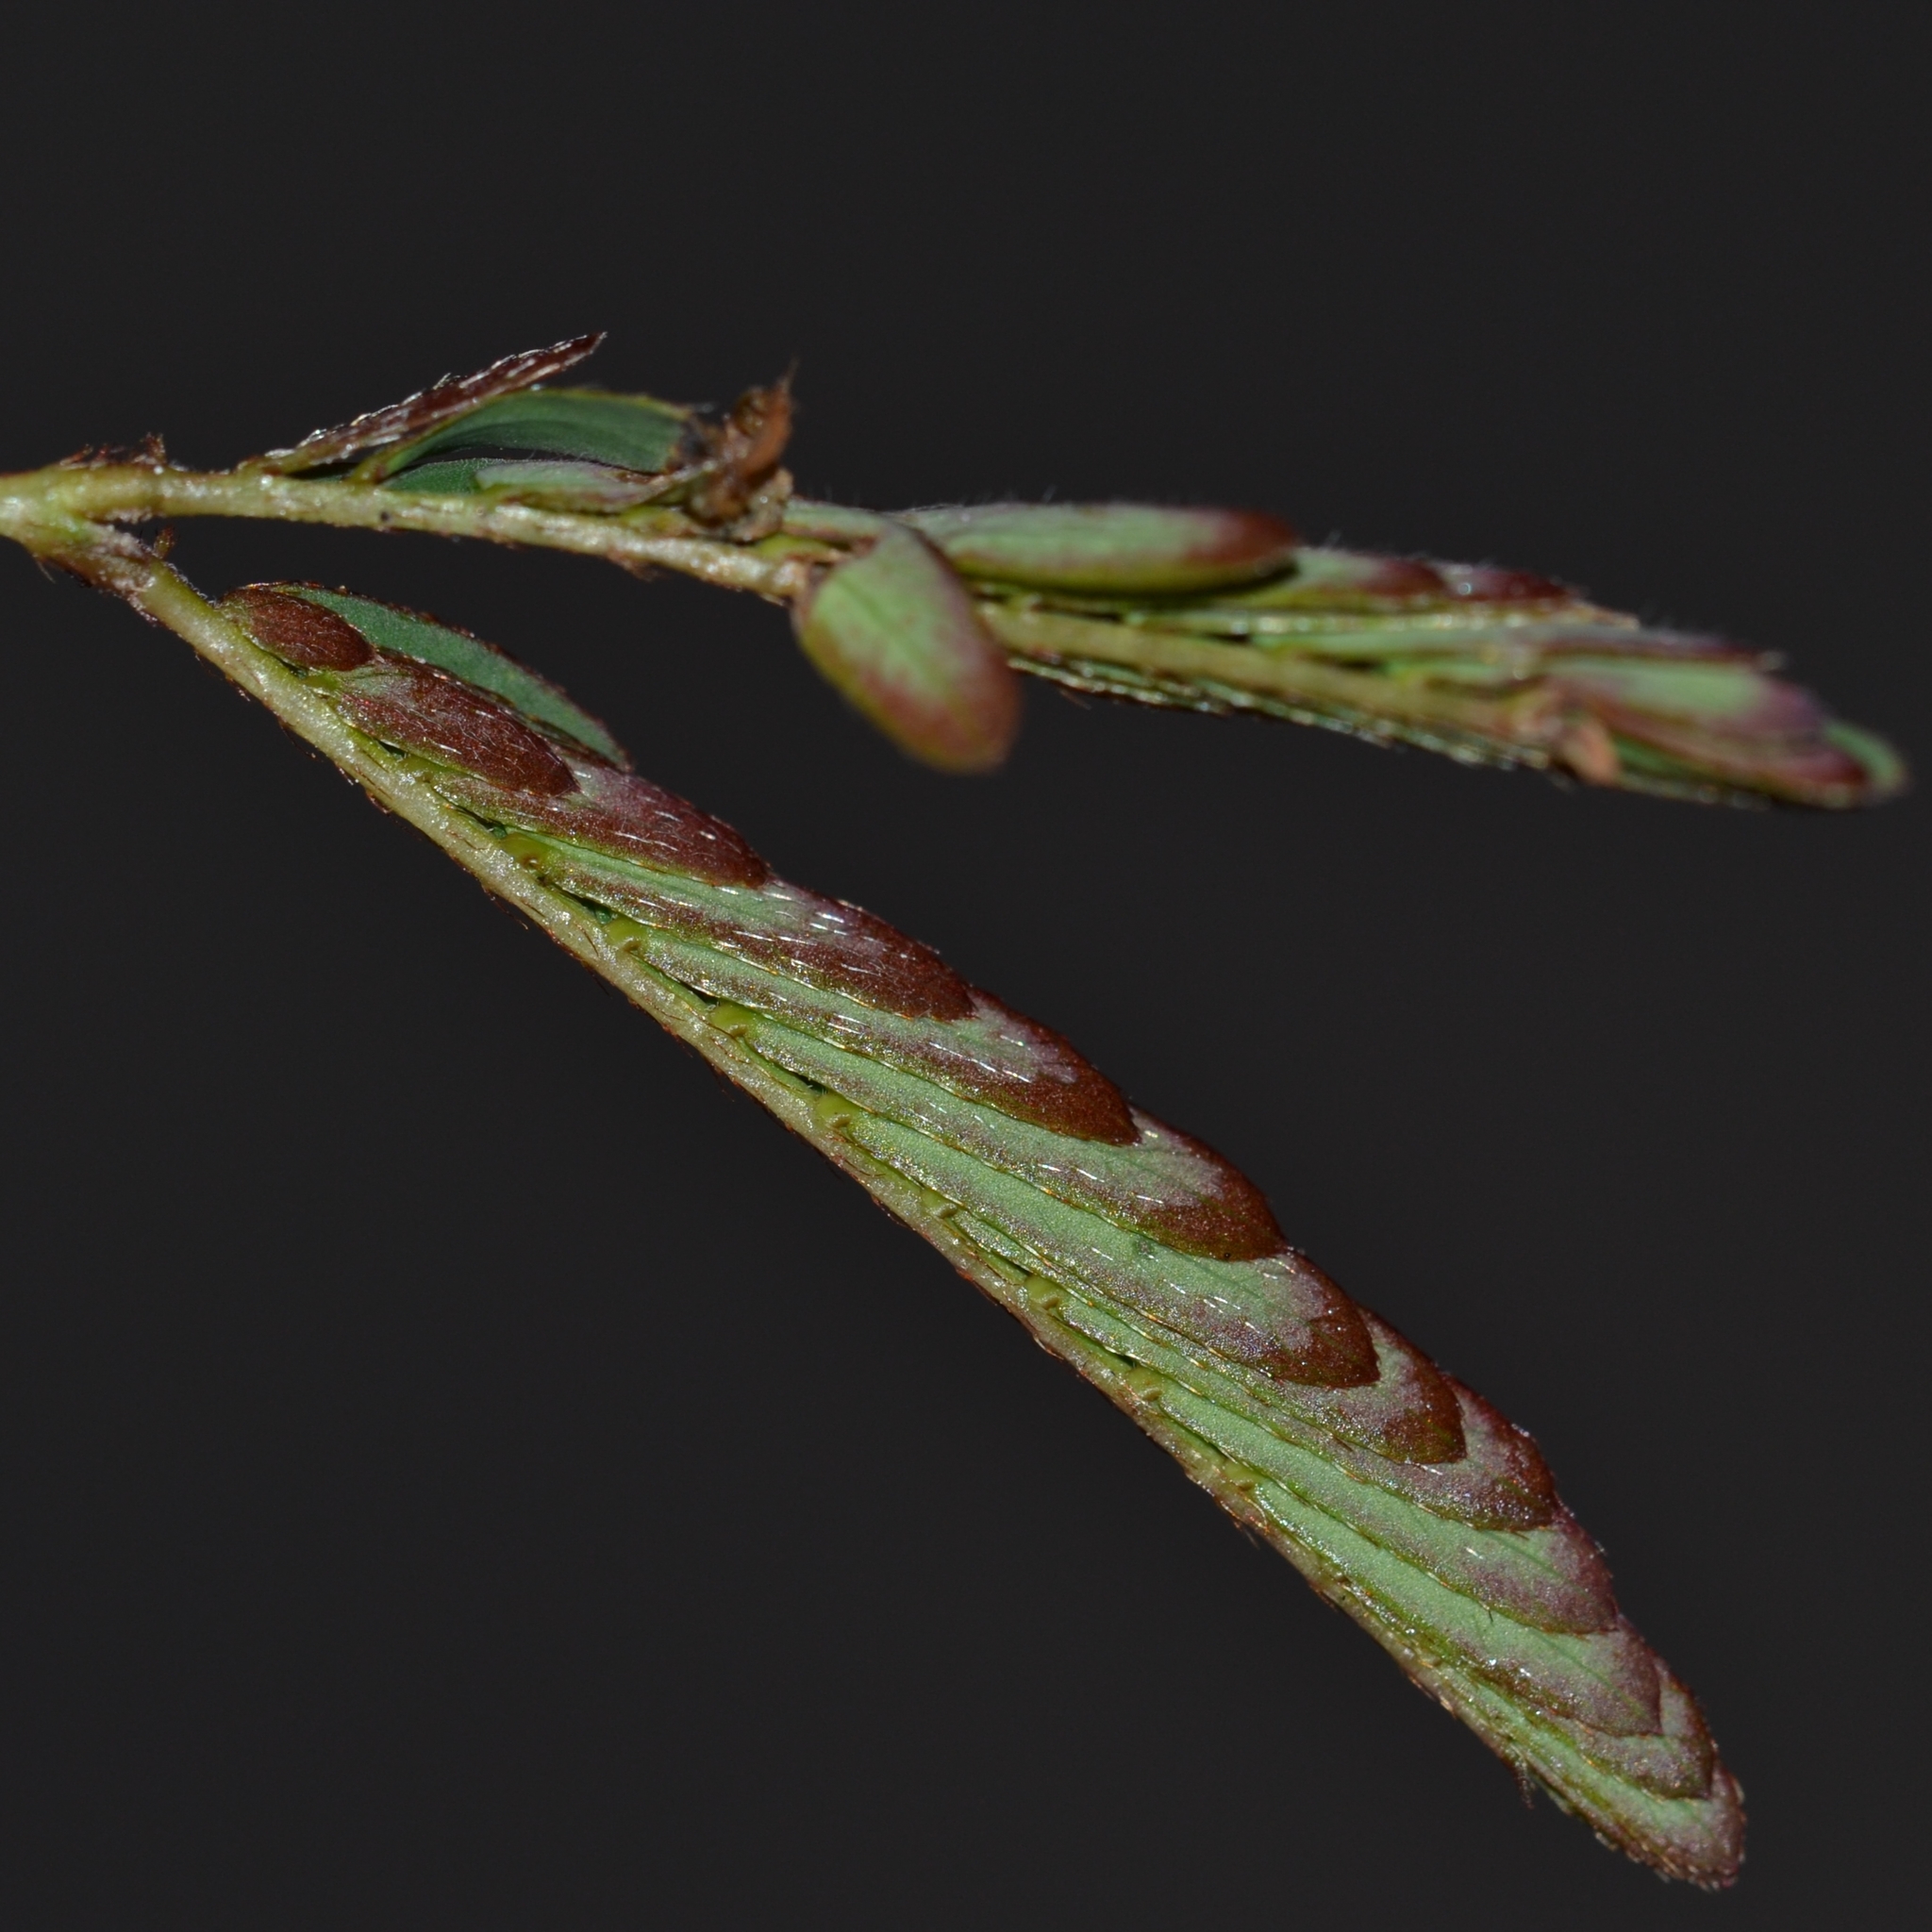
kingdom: Plantae
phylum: Tracheophyta
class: Magnoliopsida
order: Fabales
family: Fabaceae
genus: Mimosa
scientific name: Mimosa pudica
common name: Sensitive plant
